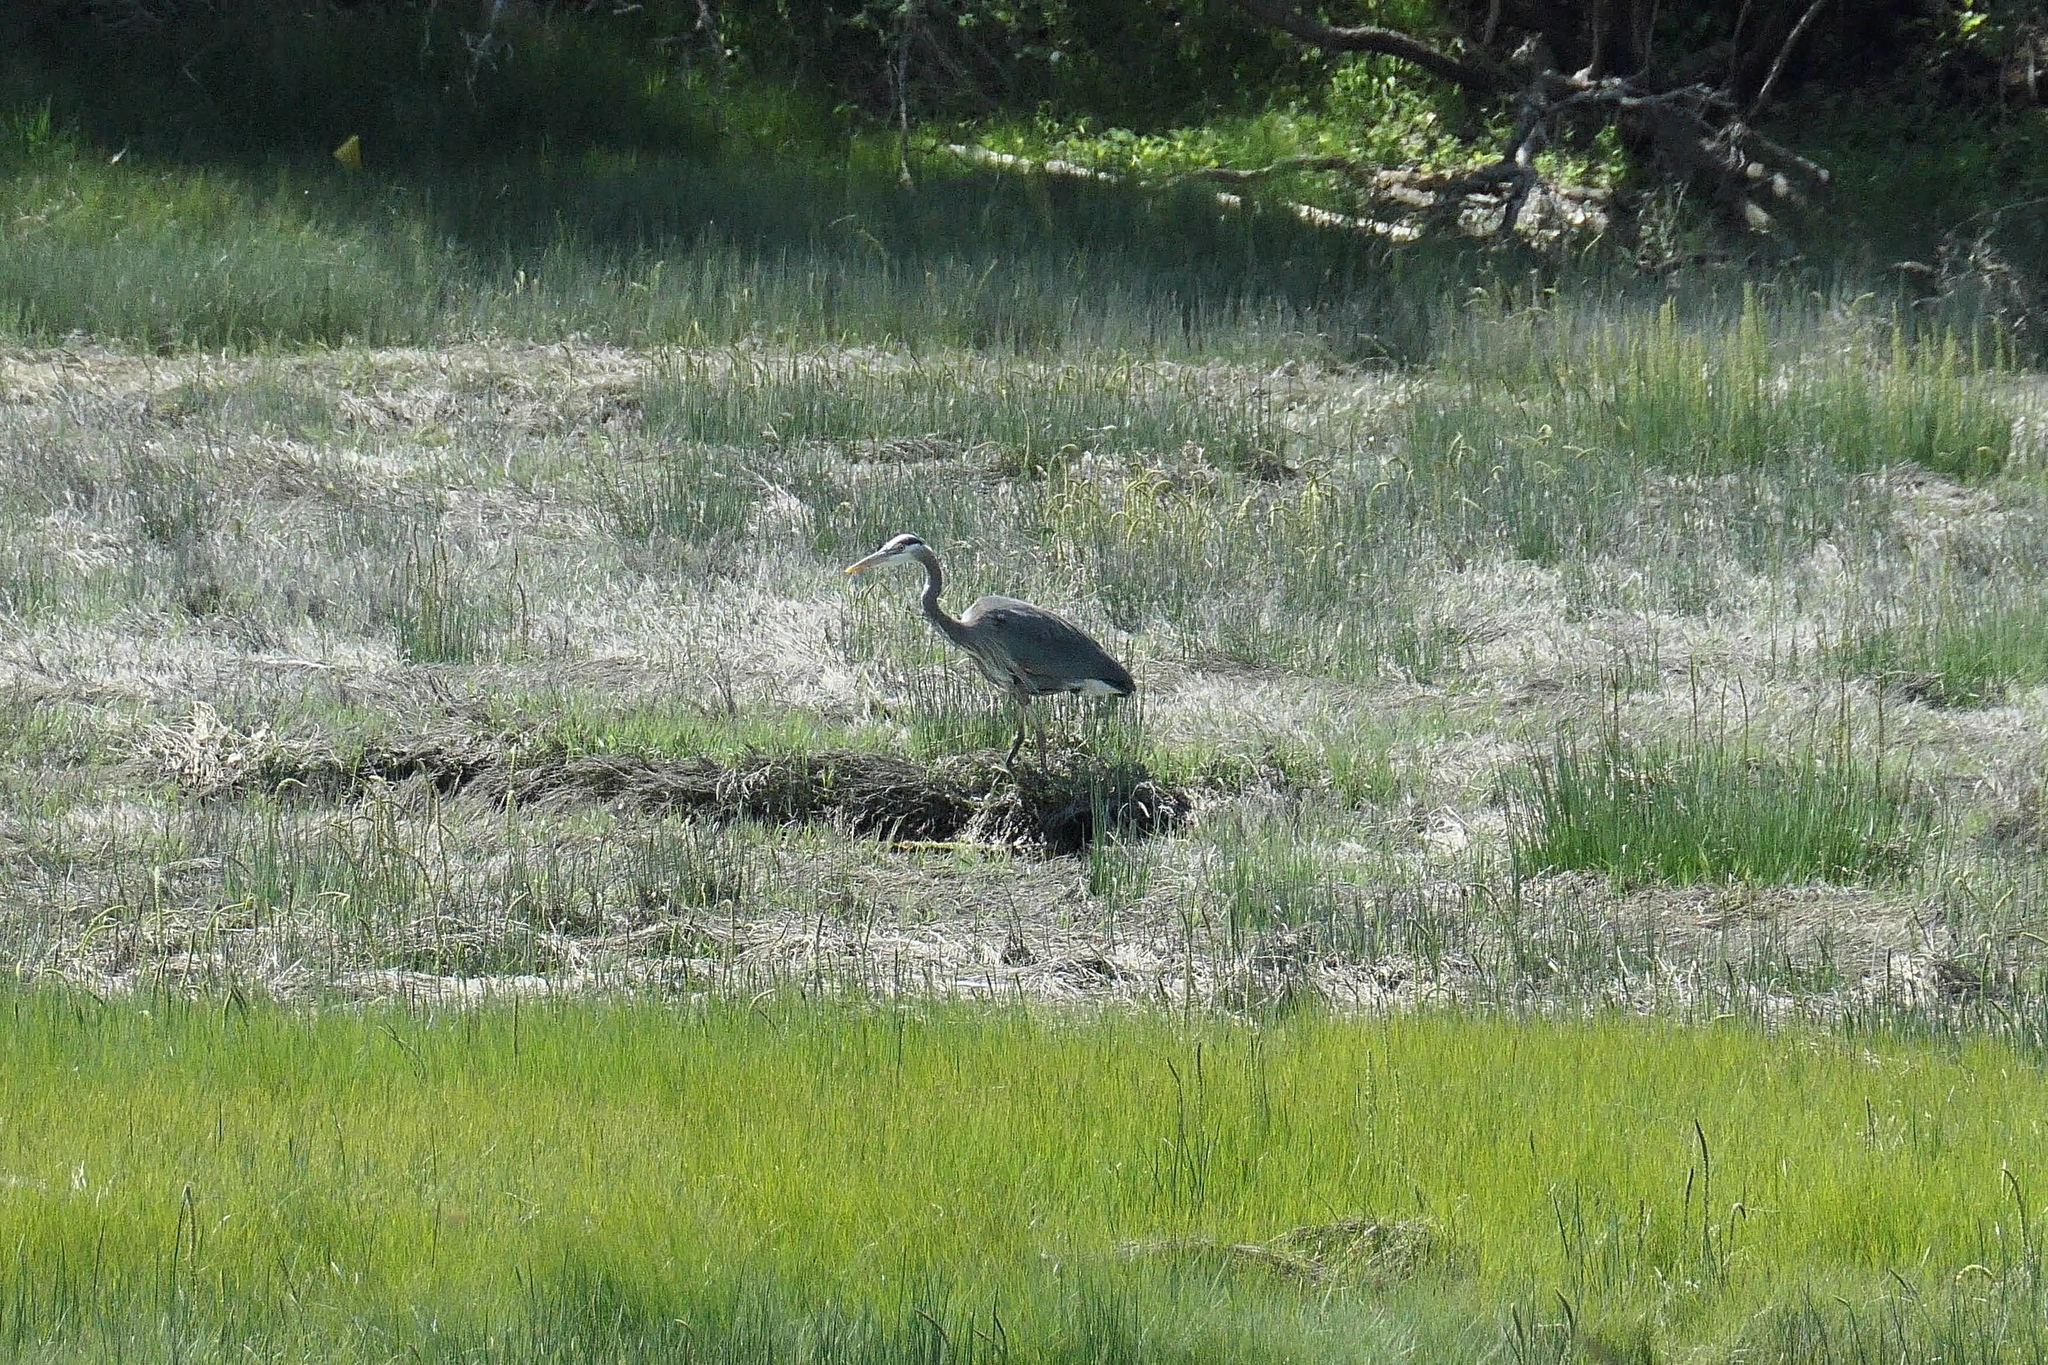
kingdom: Animalia
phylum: Chordata
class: Aves
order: Pelecaniformes
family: Ardeidae
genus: Ardea
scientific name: Ardea herodias
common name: Great blue heron
